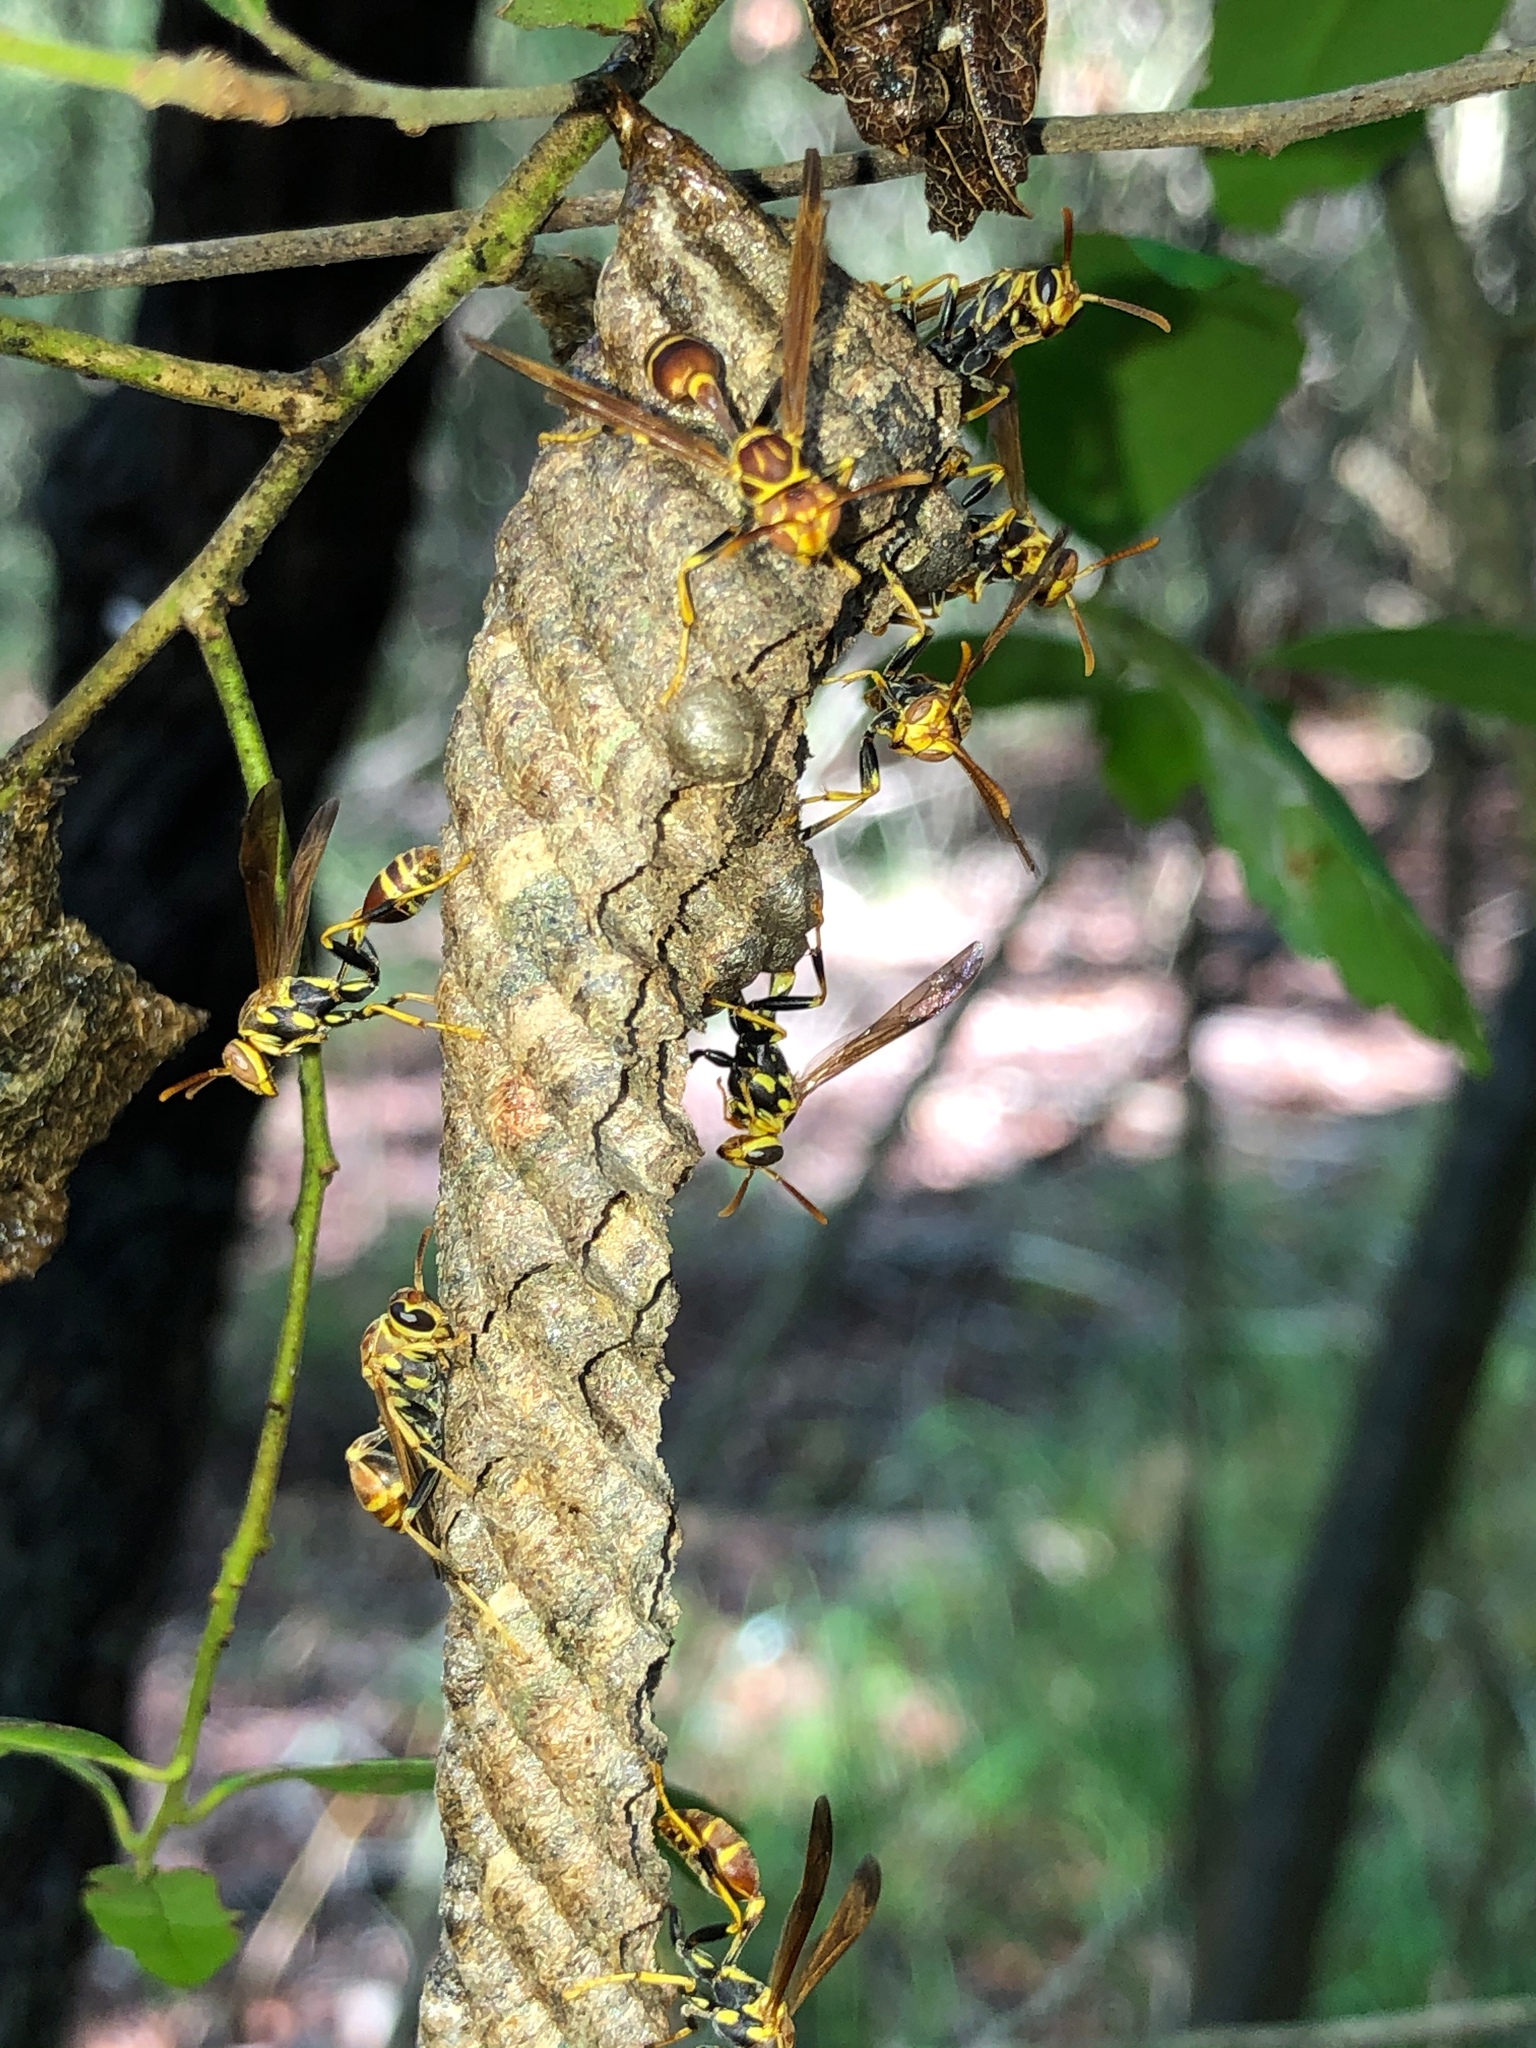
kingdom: Animalia
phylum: Arthropoda
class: Insecta
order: Hymenoptera
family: Vespidae
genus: Mischocyttarus
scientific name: Mischocyttarus mexicanus
